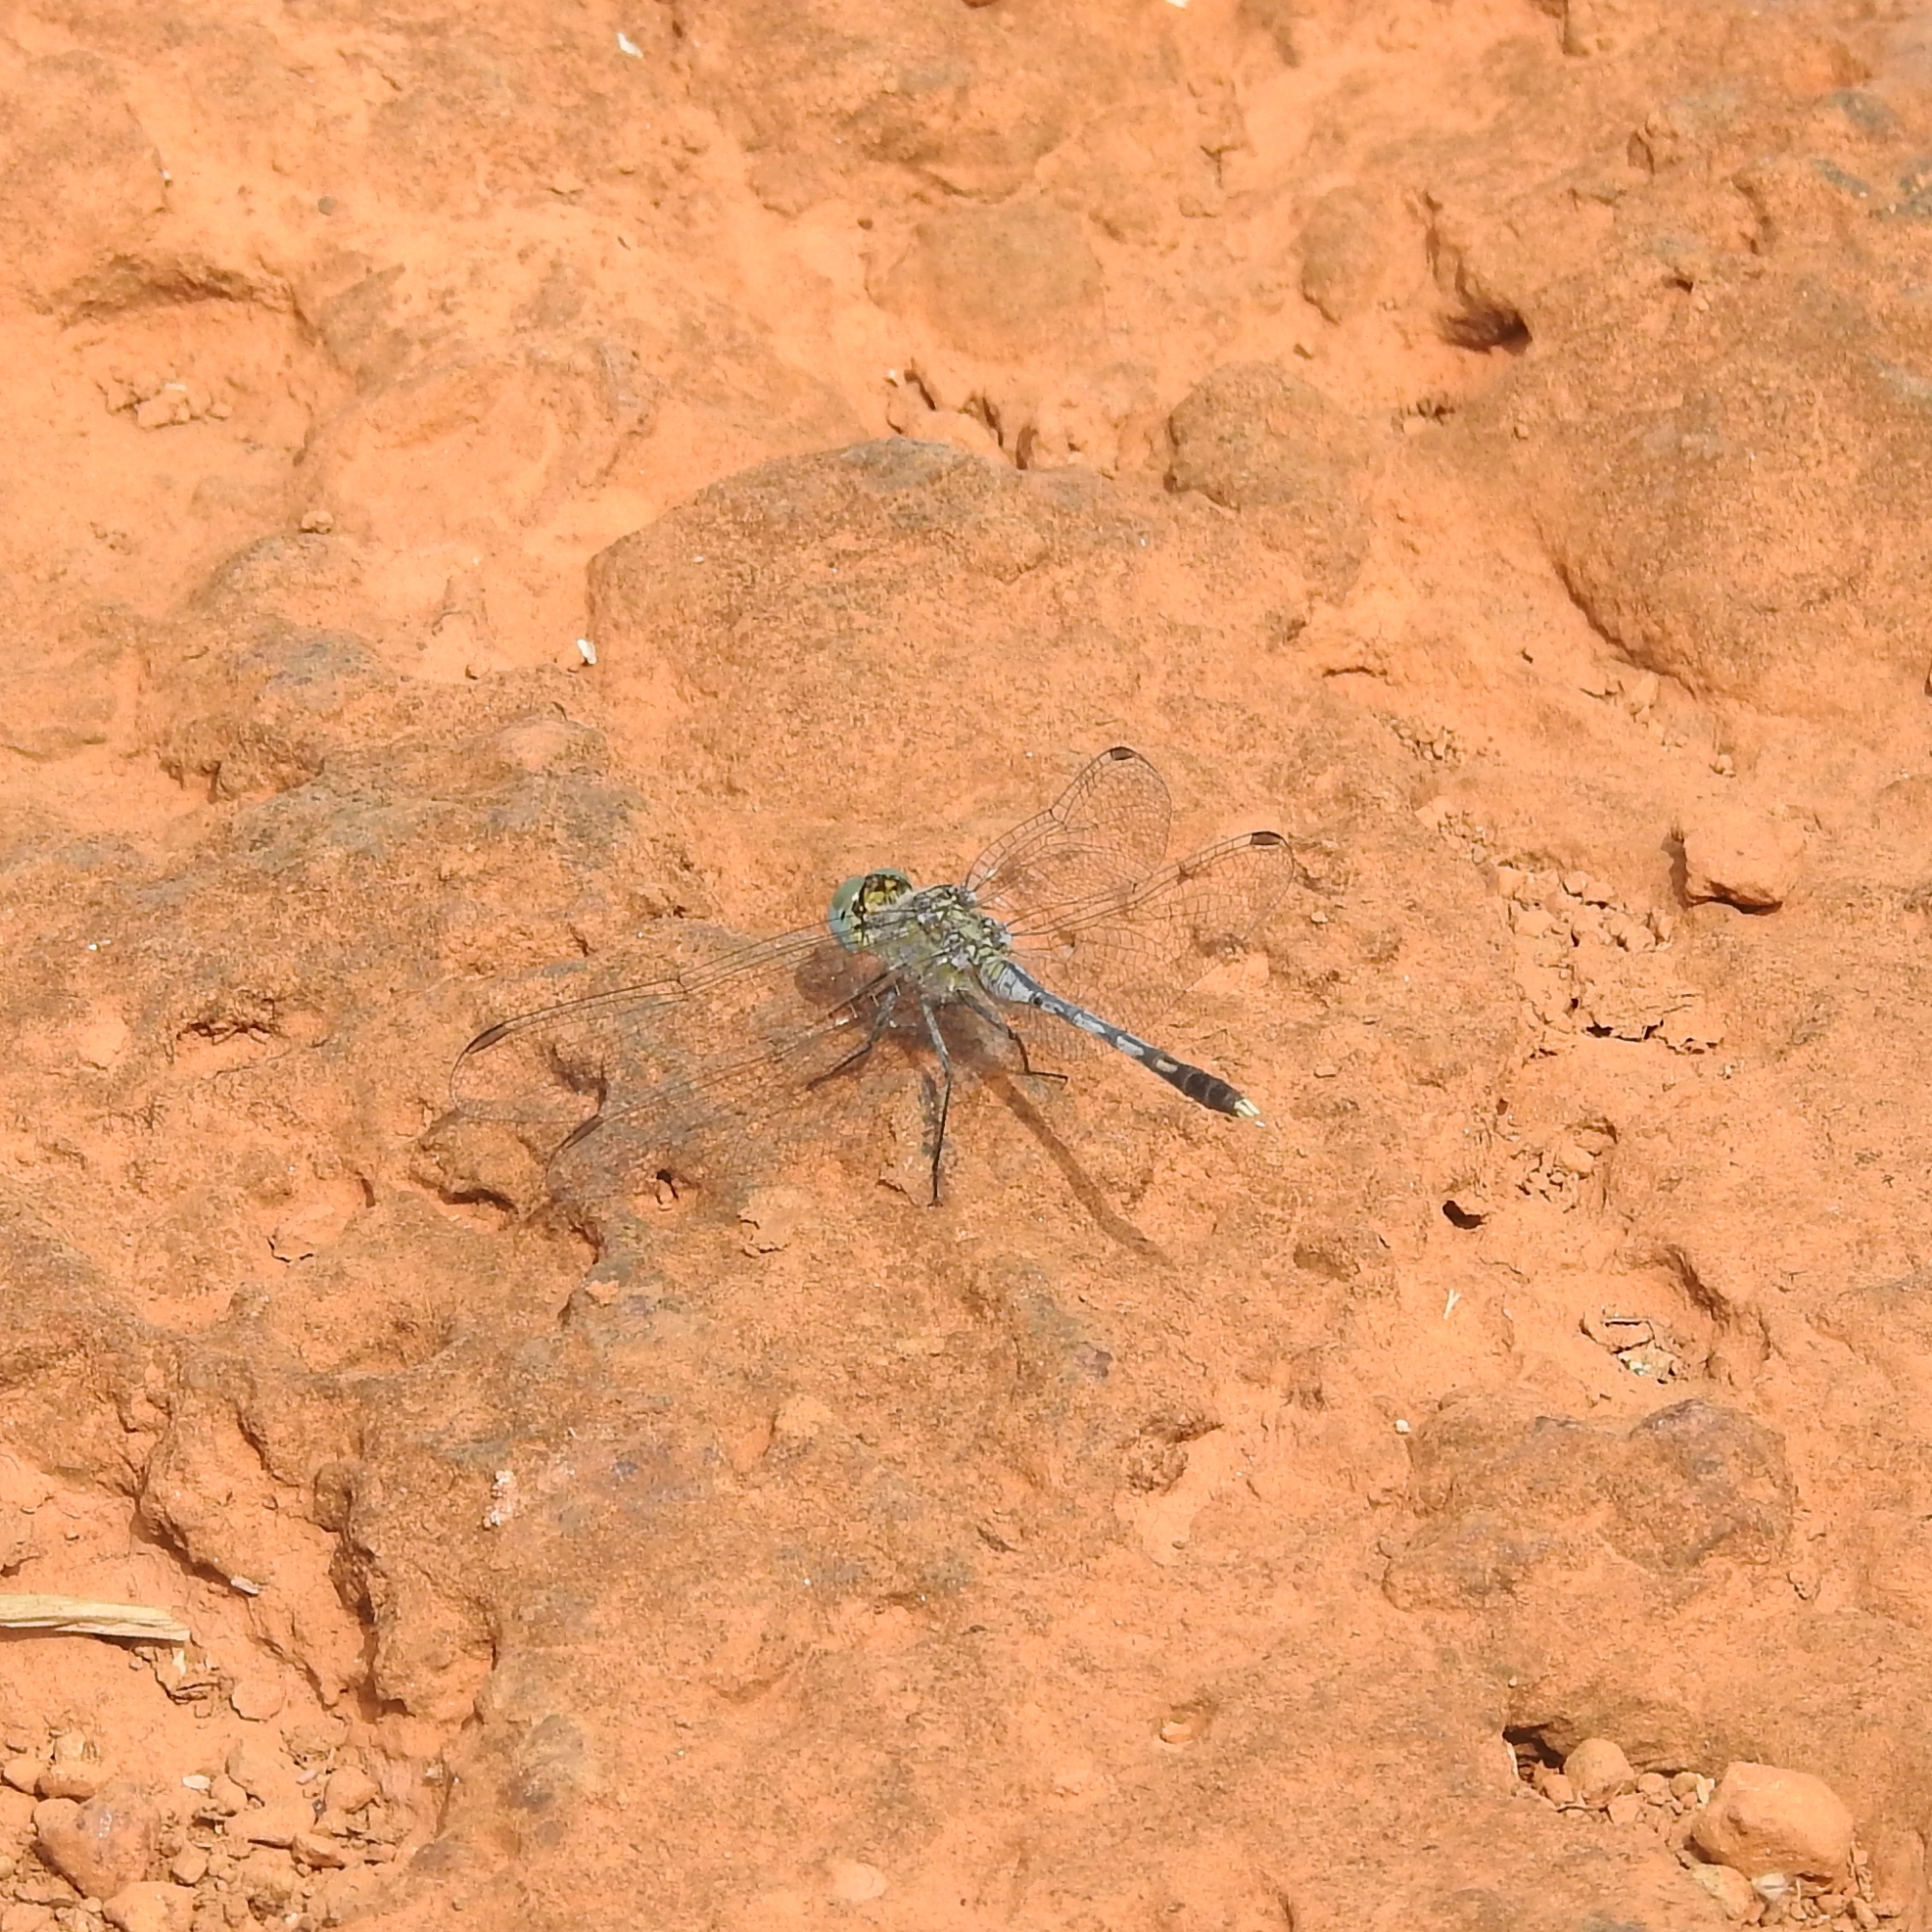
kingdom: Animalia
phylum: Arthropoda
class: Insecta
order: Odonata
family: Libellulidae
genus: Diplacodes
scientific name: Diplacodes trivialis
